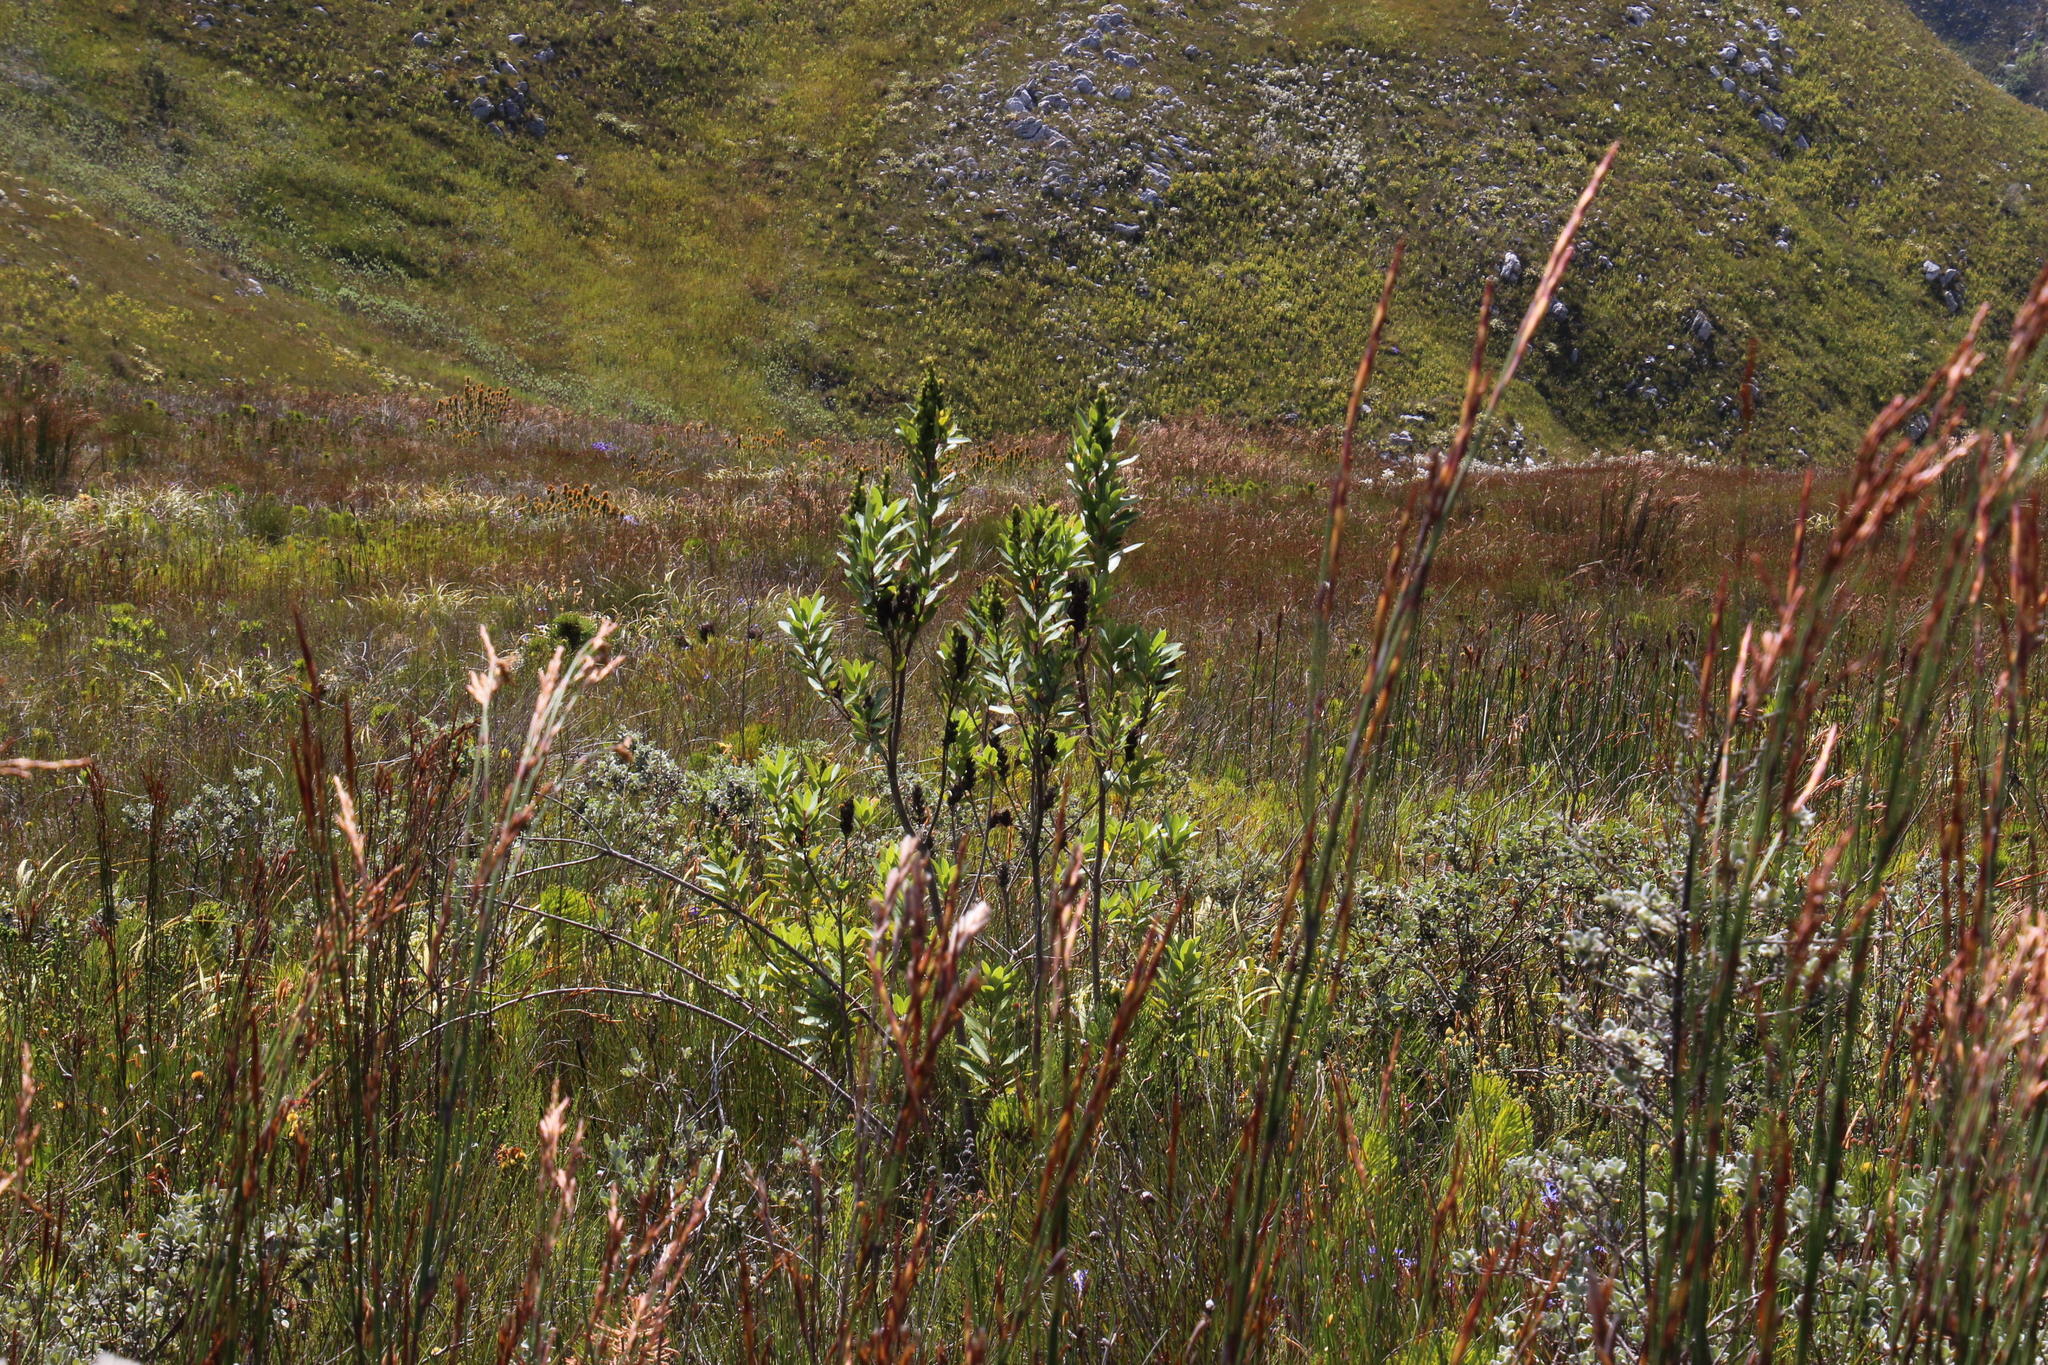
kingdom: Plantae
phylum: Tracheophyta
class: Magnoliopsida
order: Sapindales
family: Anacardiaceae
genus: Laurophyllus
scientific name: Laurophyllus capensis
